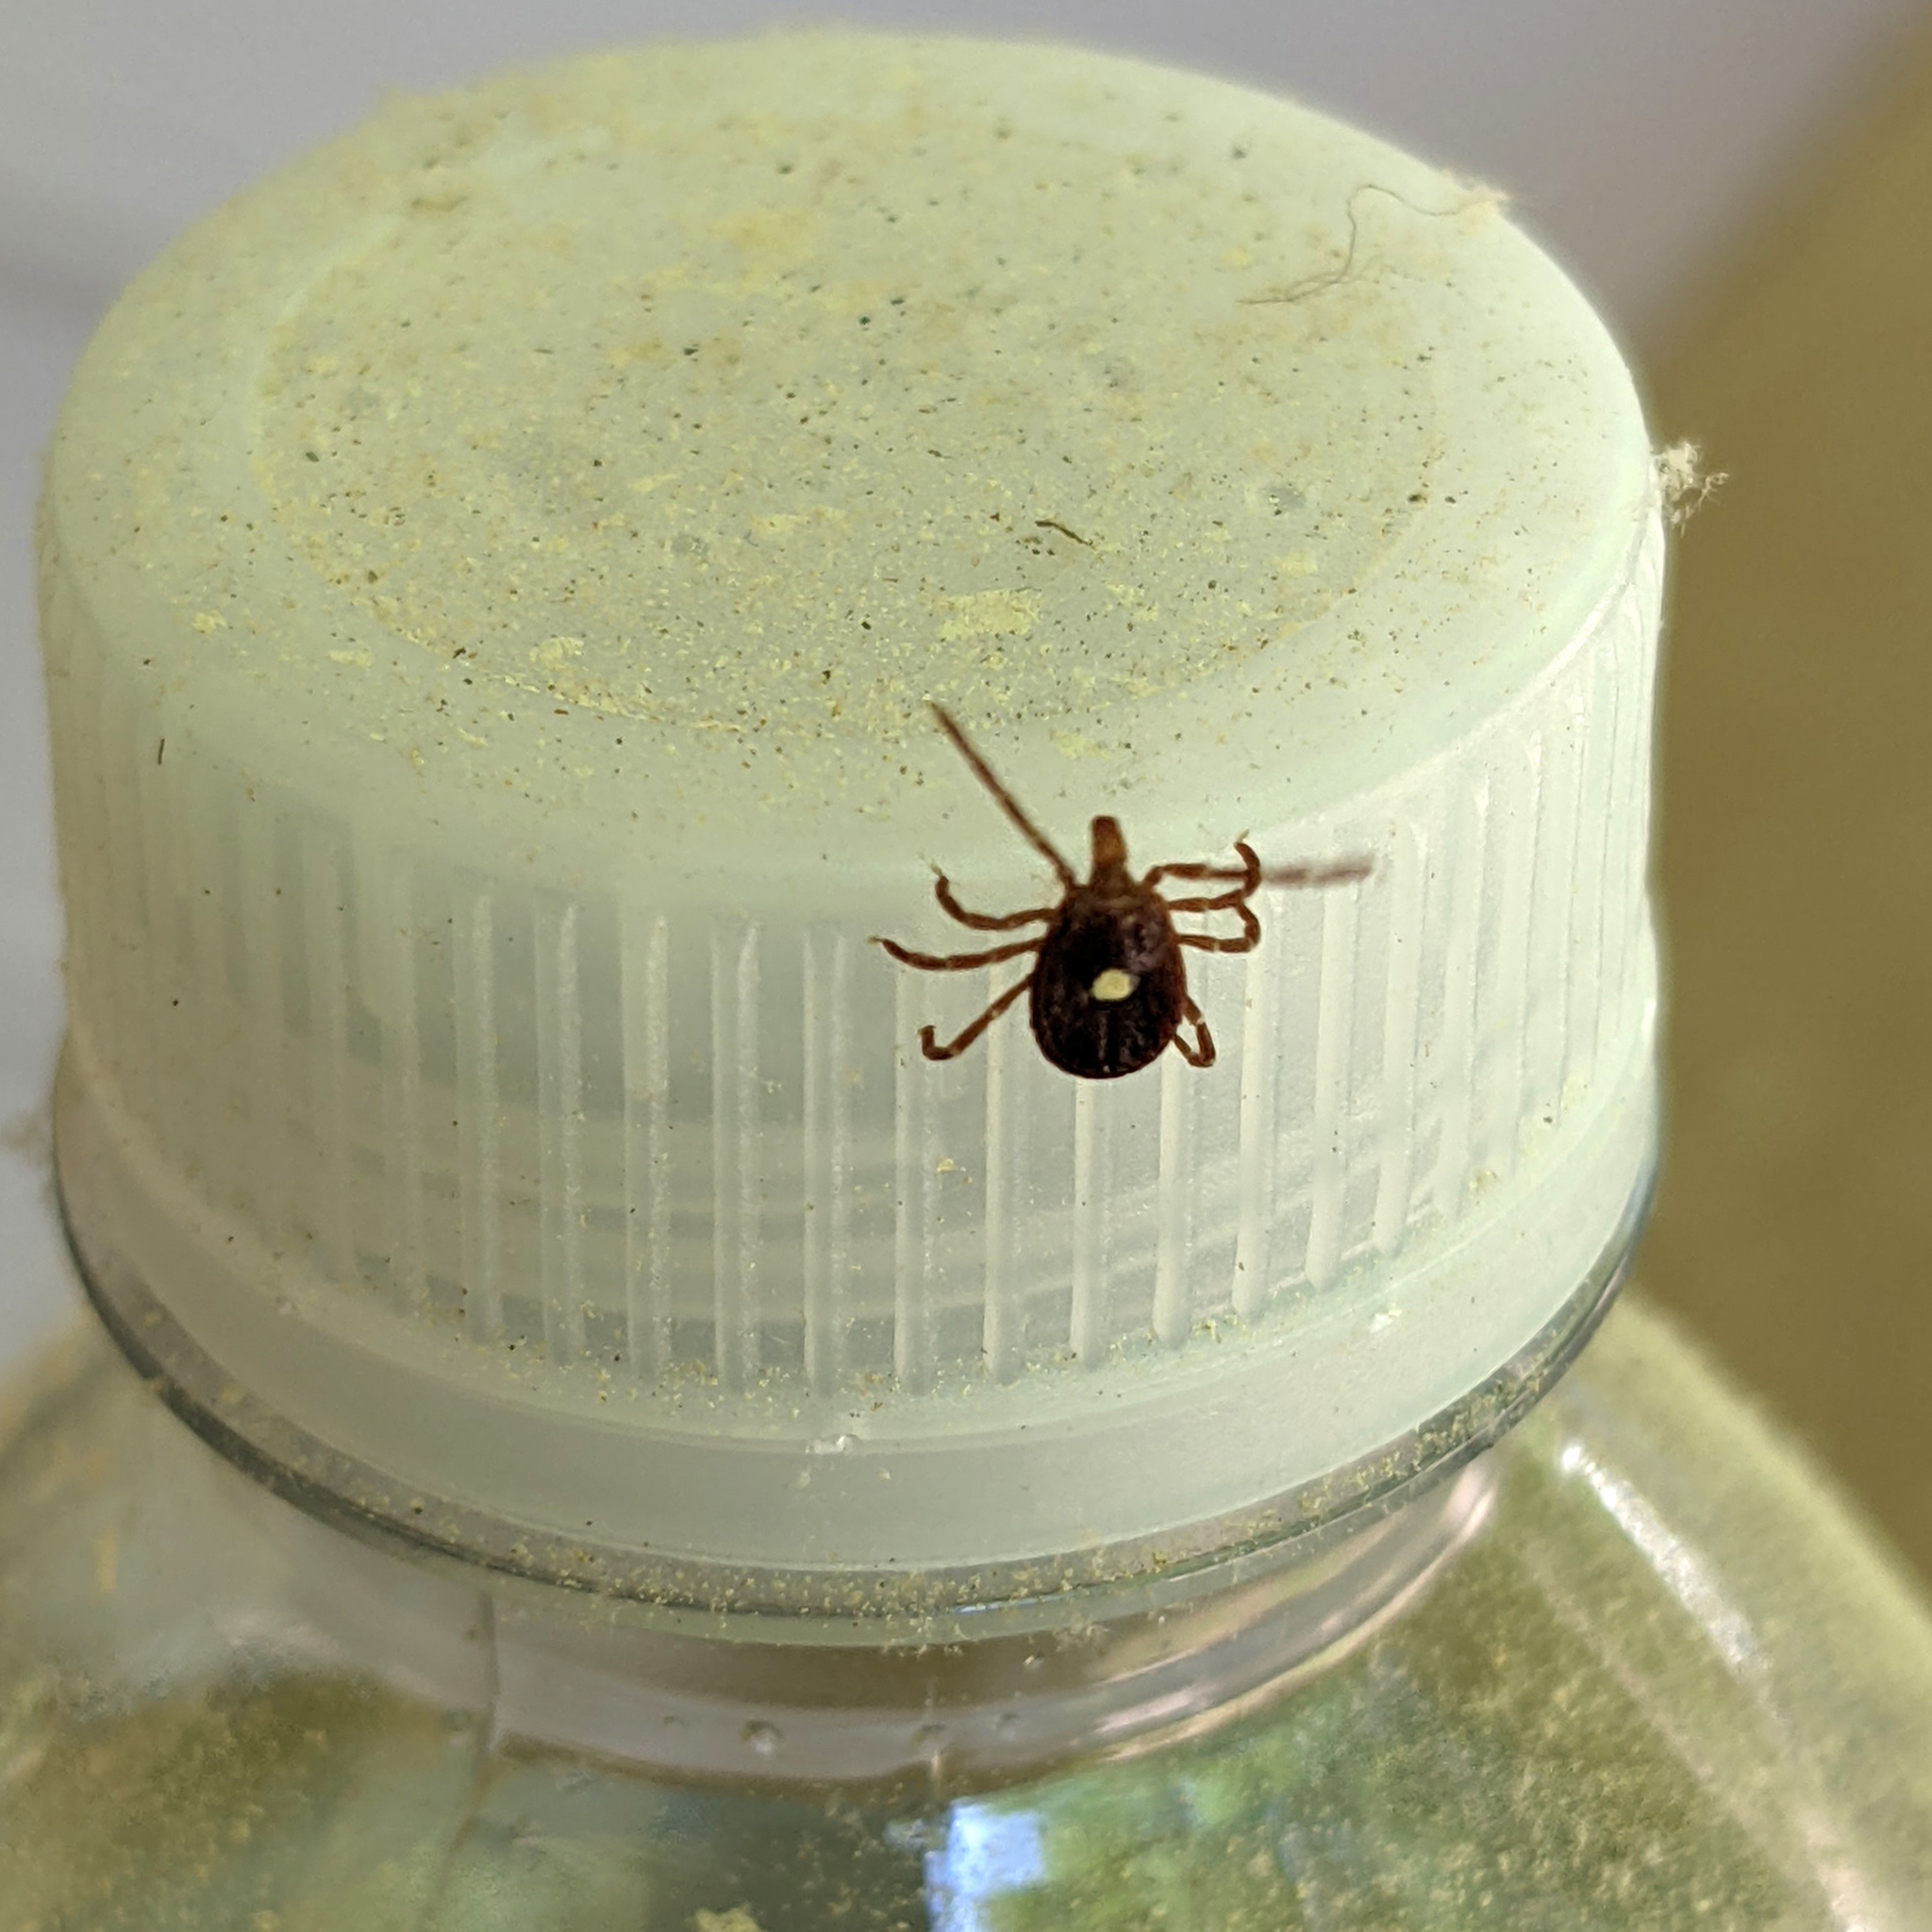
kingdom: Animalia
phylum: Arthropoda
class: Arachnida
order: Ixodida
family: Ixodidae
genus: Amblyomma
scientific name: Amblyomma americanum
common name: Lone star tick
